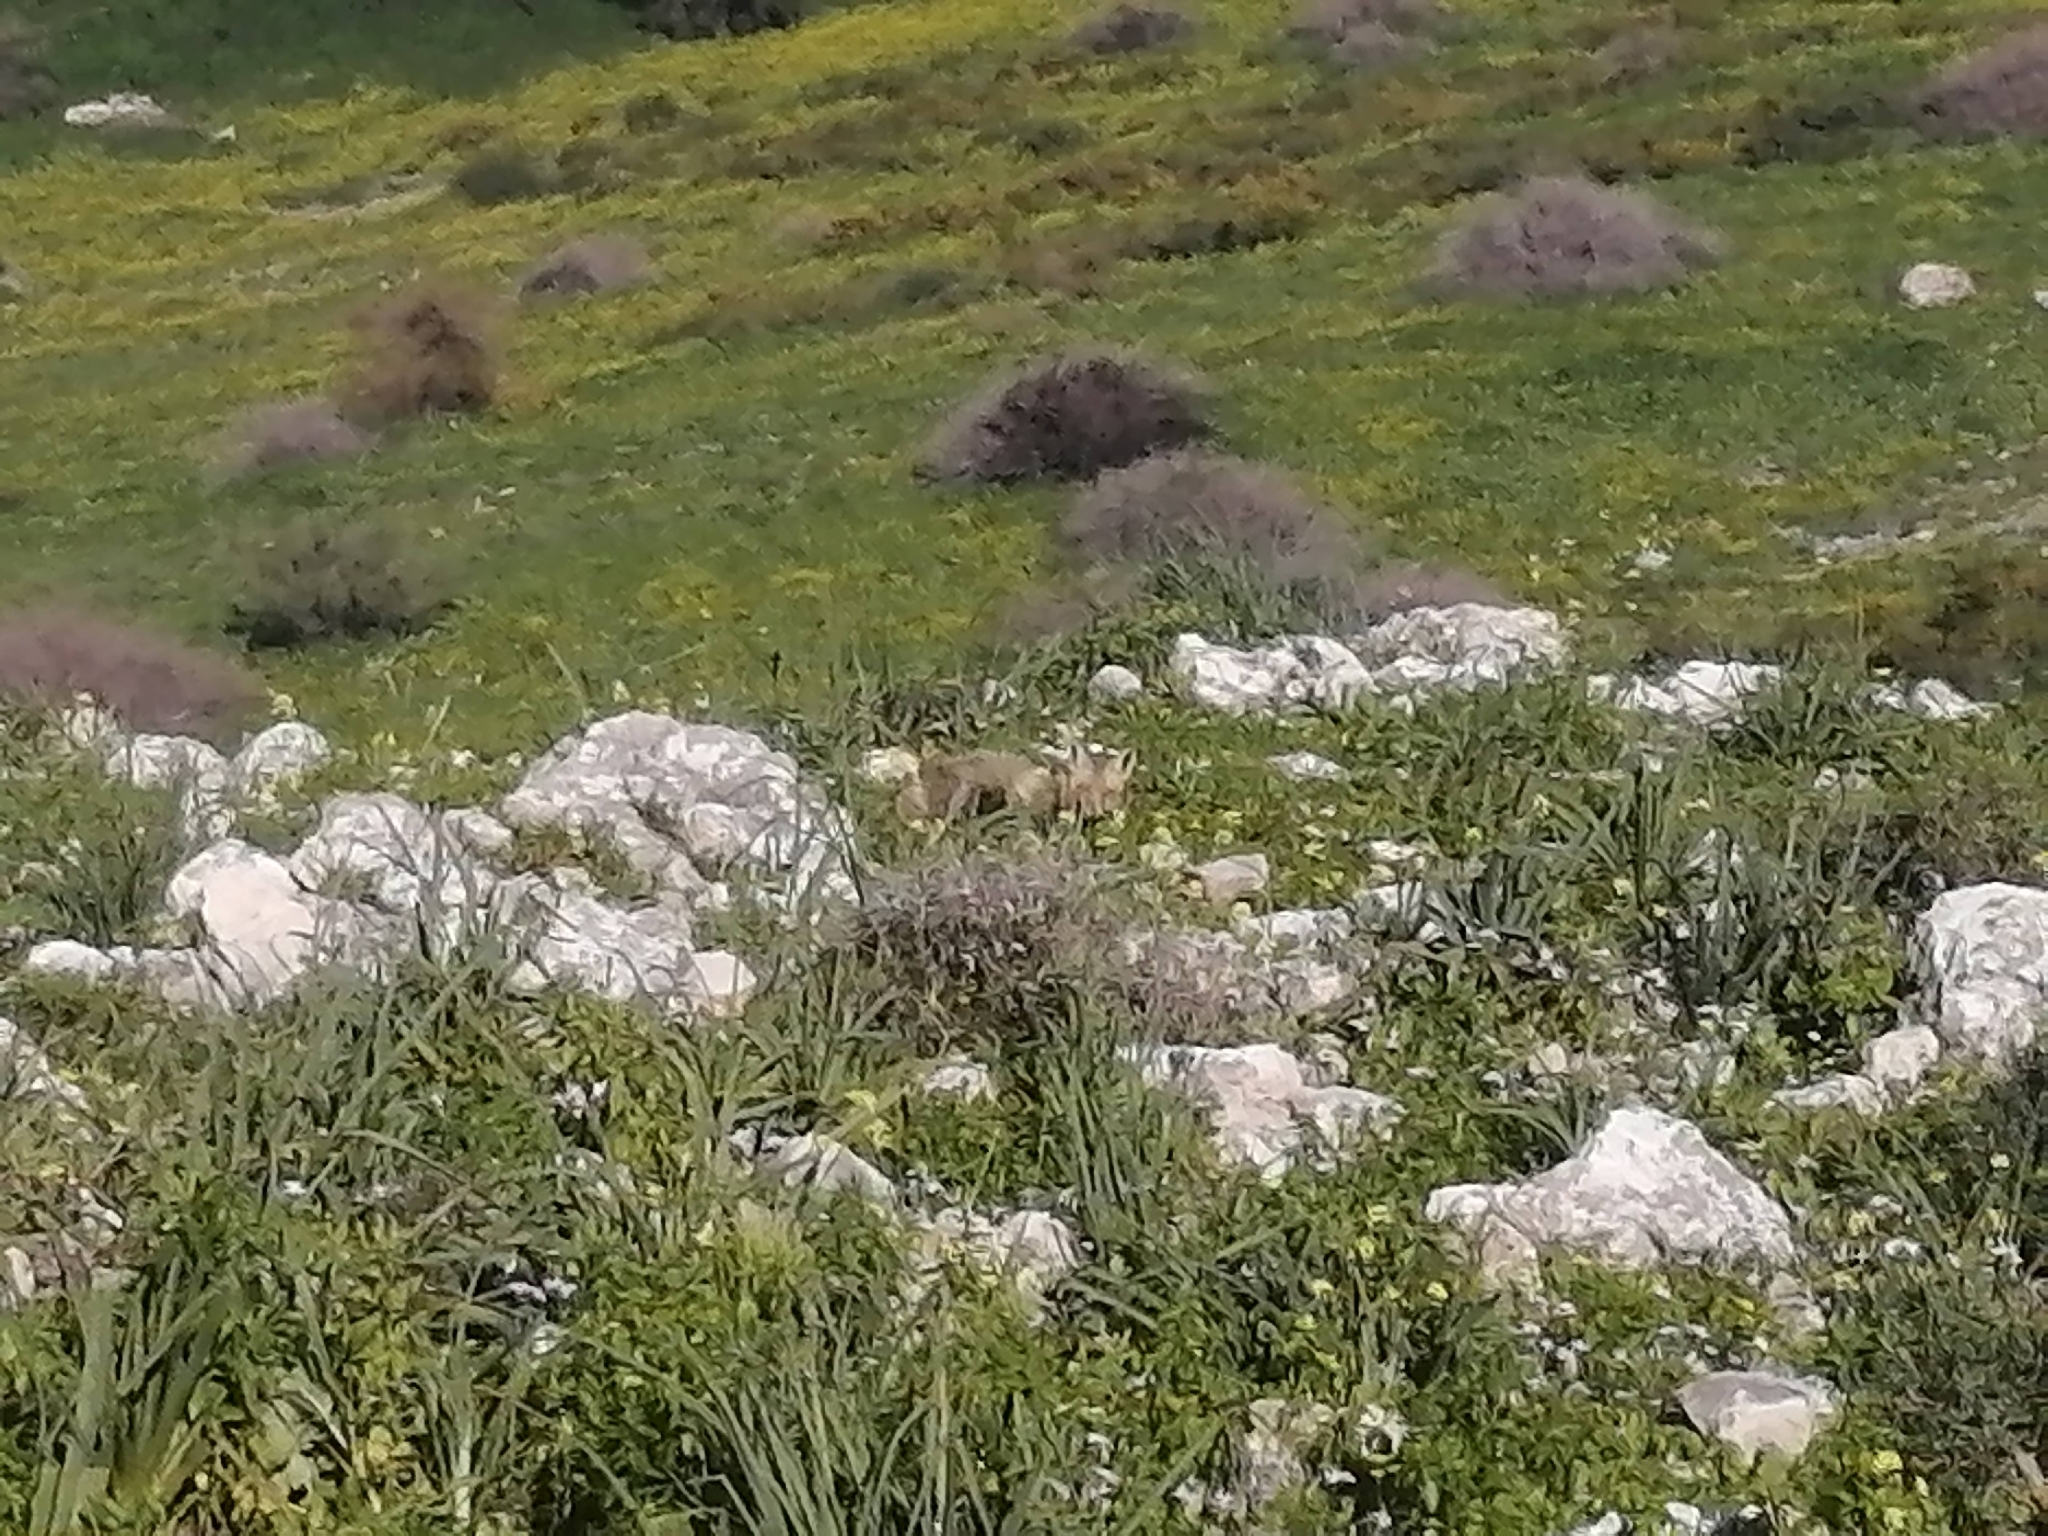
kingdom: Animalia
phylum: Chordata
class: Mammalia
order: Carnivora
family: Canidae
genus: Vulpes
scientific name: Vulpes vulpes
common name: Red fox
